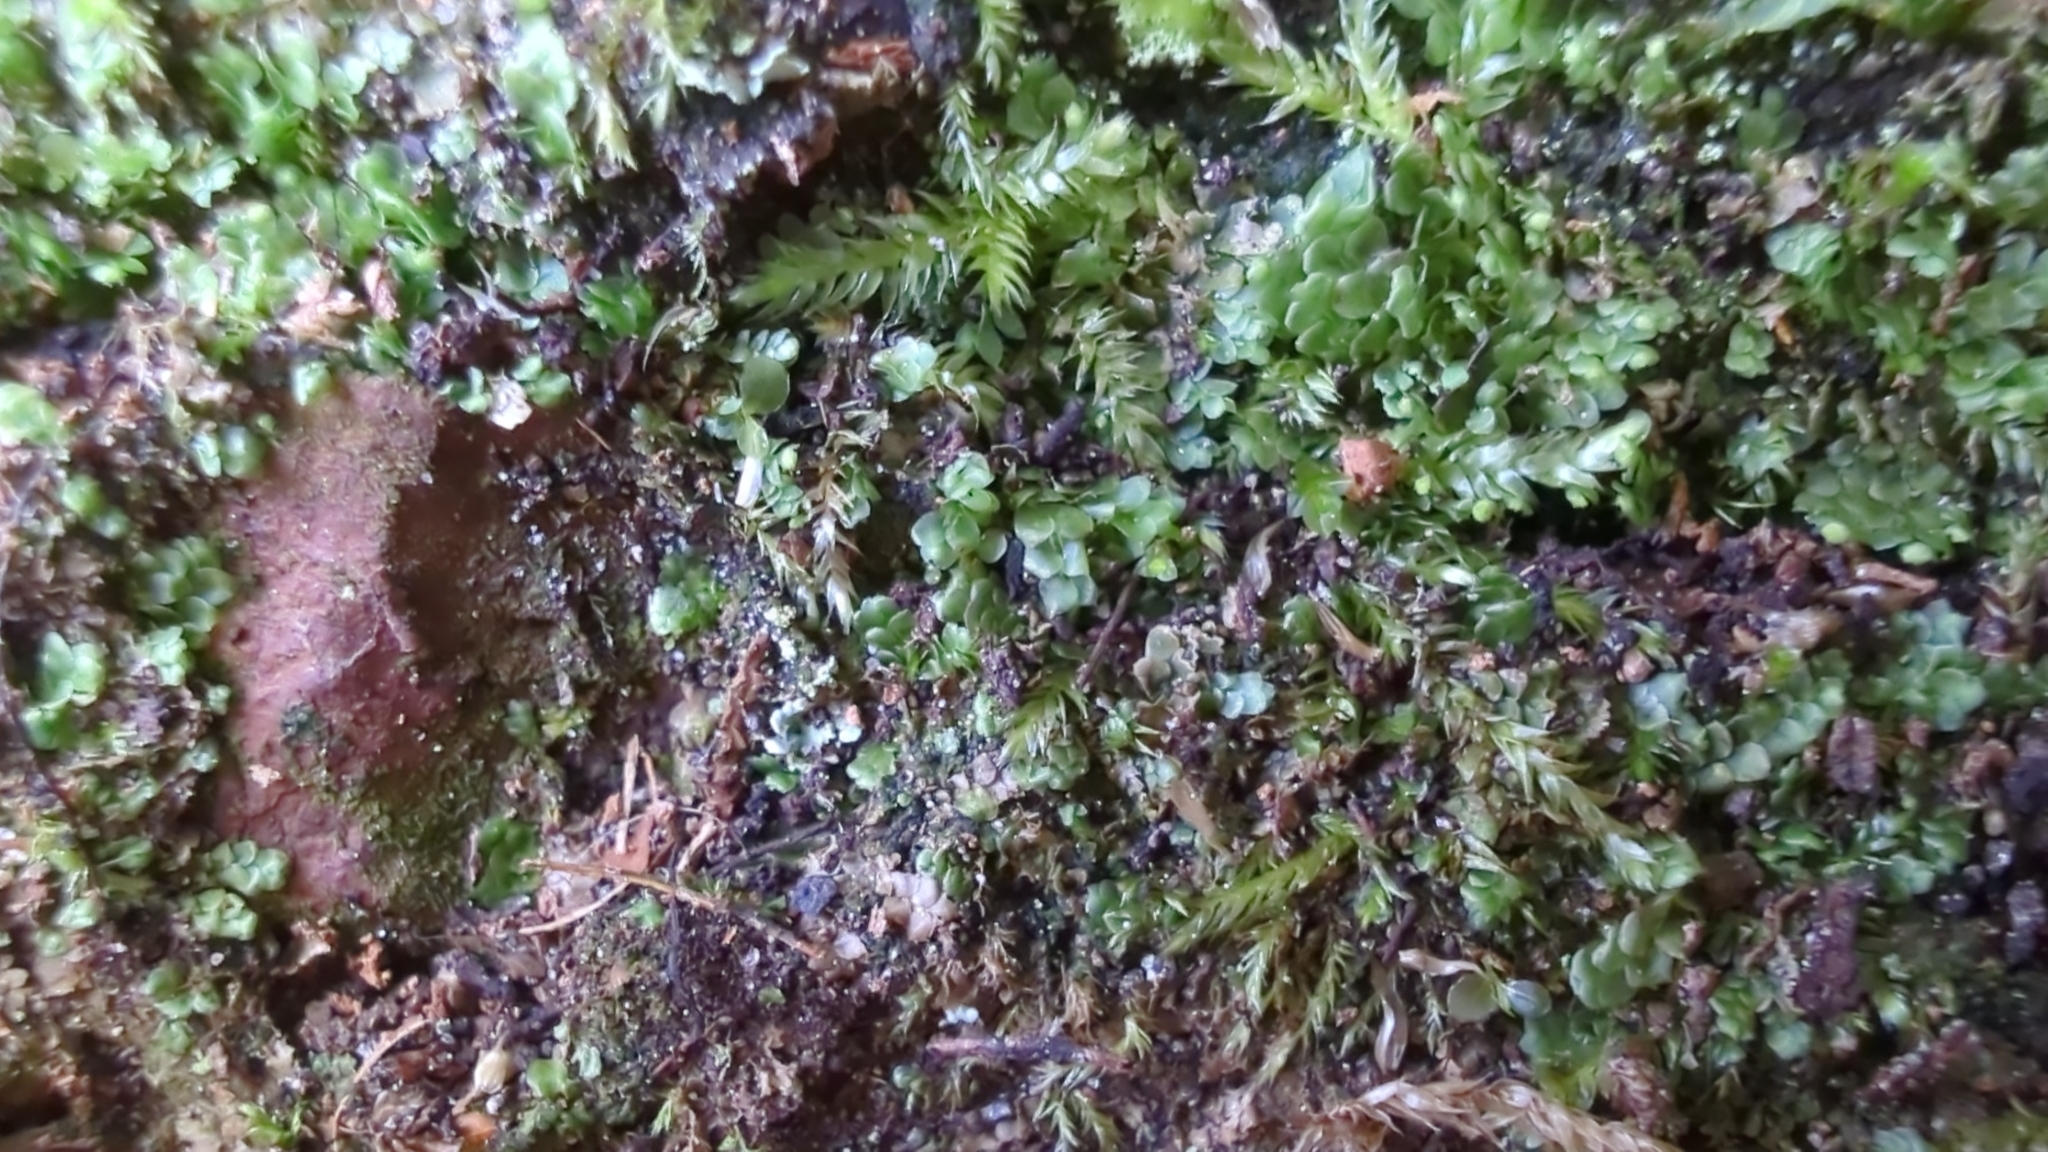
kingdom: Plantae
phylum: Marchantiophyta
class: Jungermanniopsida
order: Jungermanniales
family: Calypogeiaceae
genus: Calypogeia
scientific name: Calypogeia muelleriana
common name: Mueller s pouchwort
